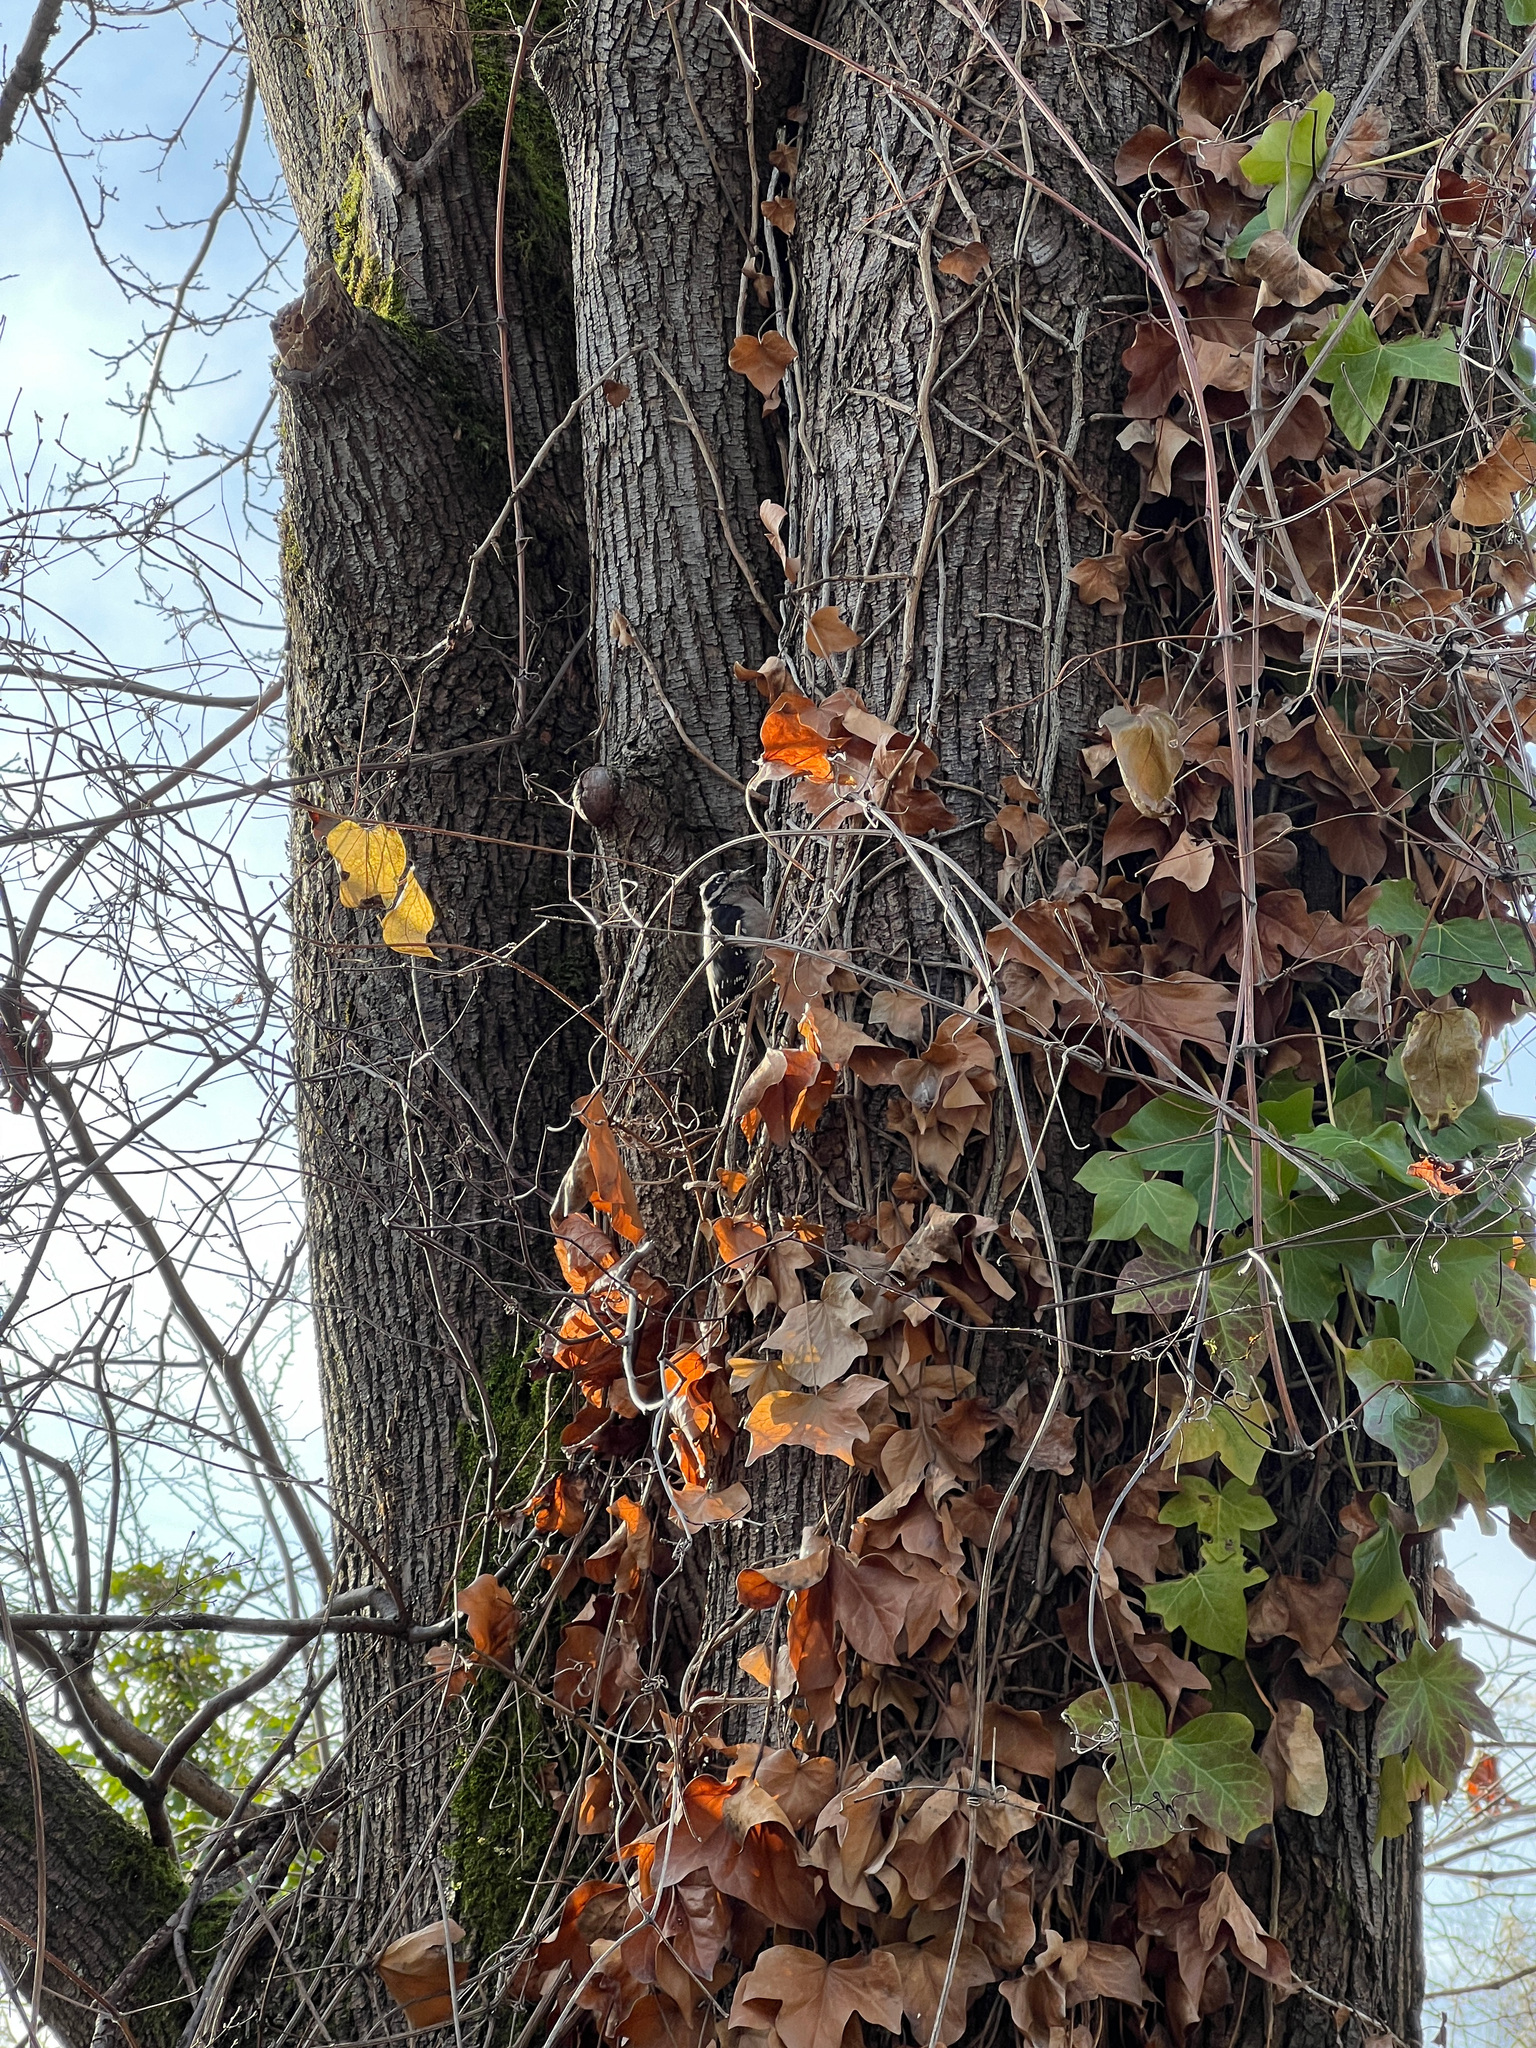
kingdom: Animalia
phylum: Chordata
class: Aves
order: Piciformes
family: Picidae
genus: Dryobates
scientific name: Dryobates pubescens
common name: Downy woodpecker
